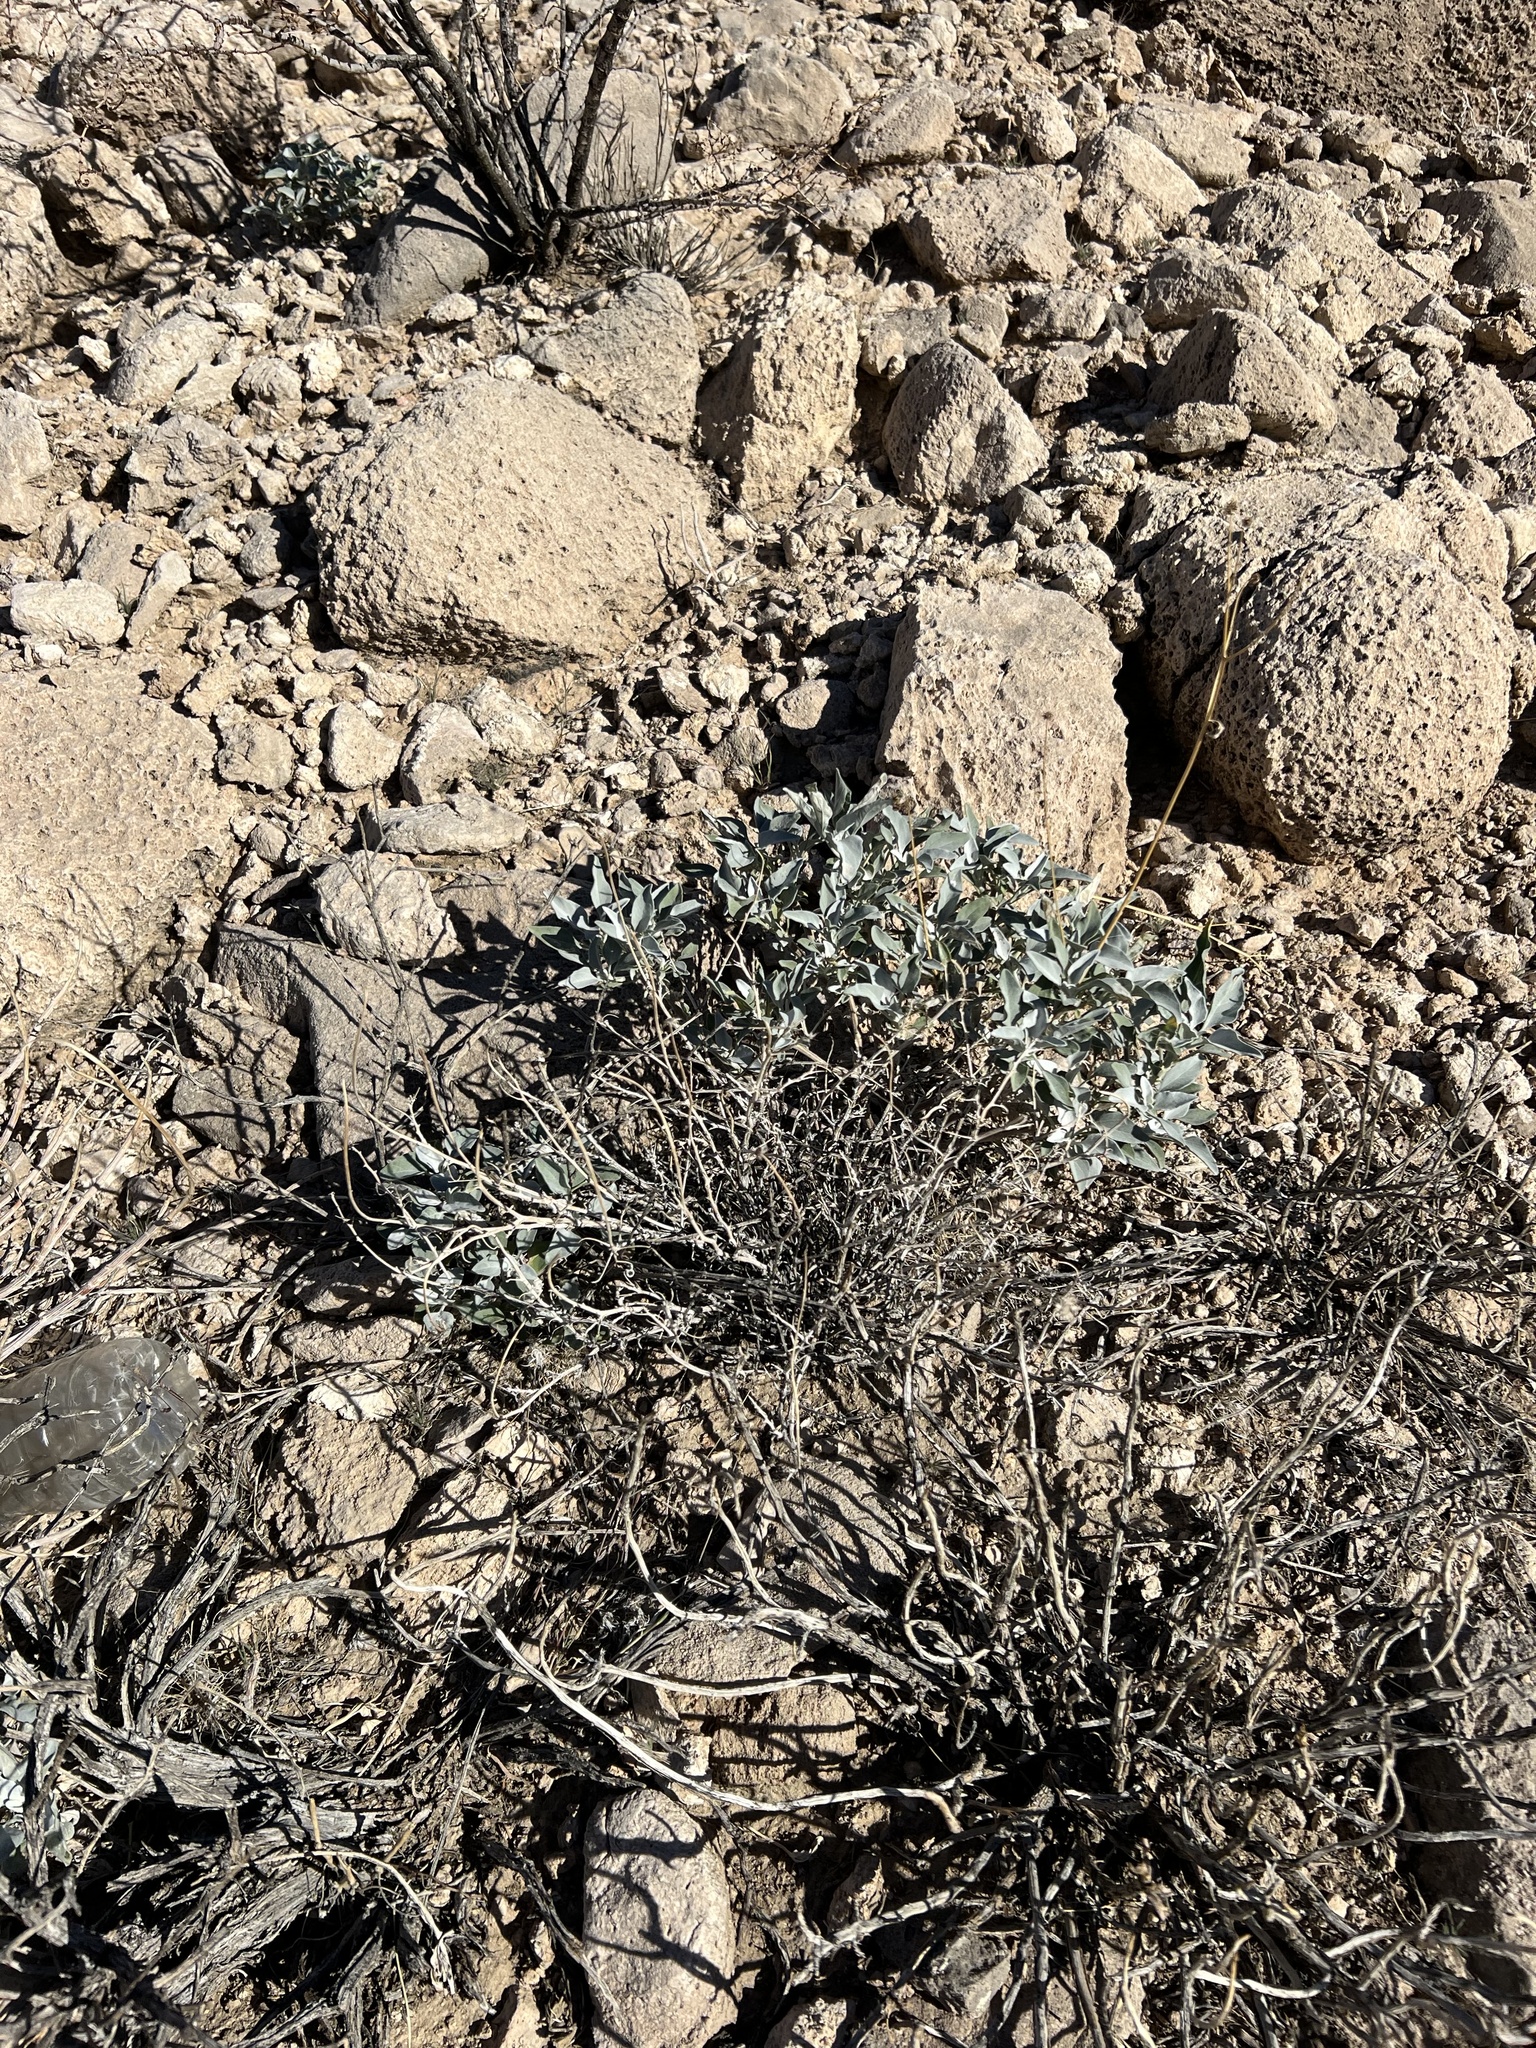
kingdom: Plantae
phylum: Tracheophyta
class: Magnoliopsida
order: Asterales
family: Asteraceae
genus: Encelia
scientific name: Encelia farinosa
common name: Brittlebush
